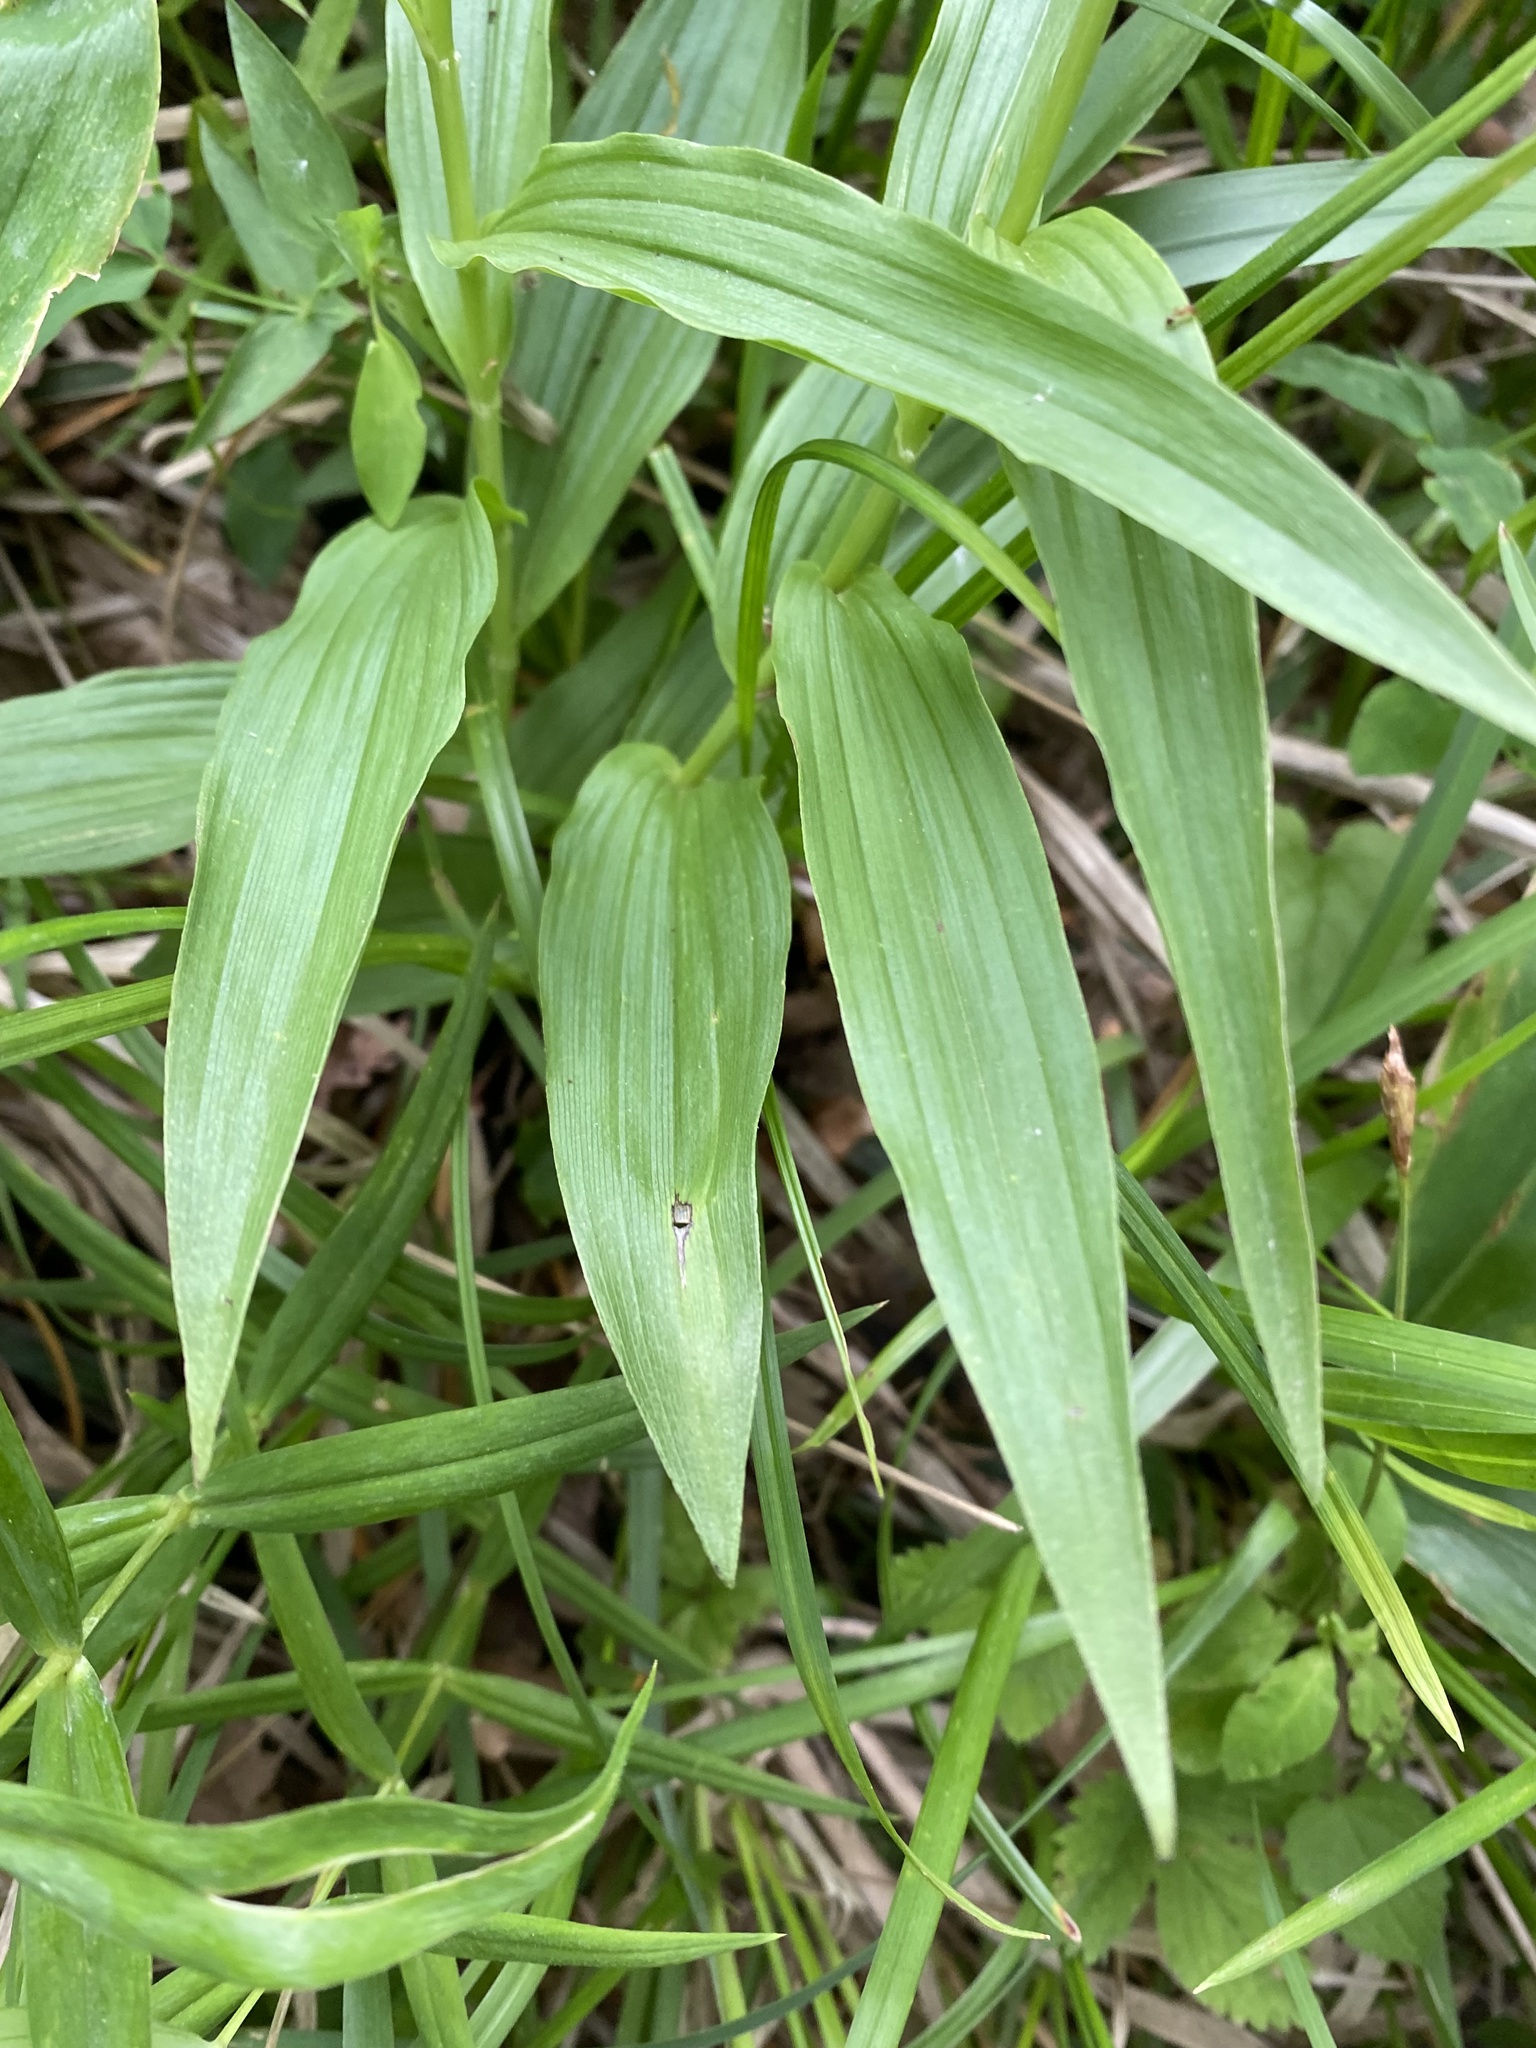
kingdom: Plantae
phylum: Tracheophyta
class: Liliopsida
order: Asparagales
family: Orchidaceae
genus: Cephalanthera
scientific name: Cephalanthera longifolia
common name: Narrow-leaved helleborine
